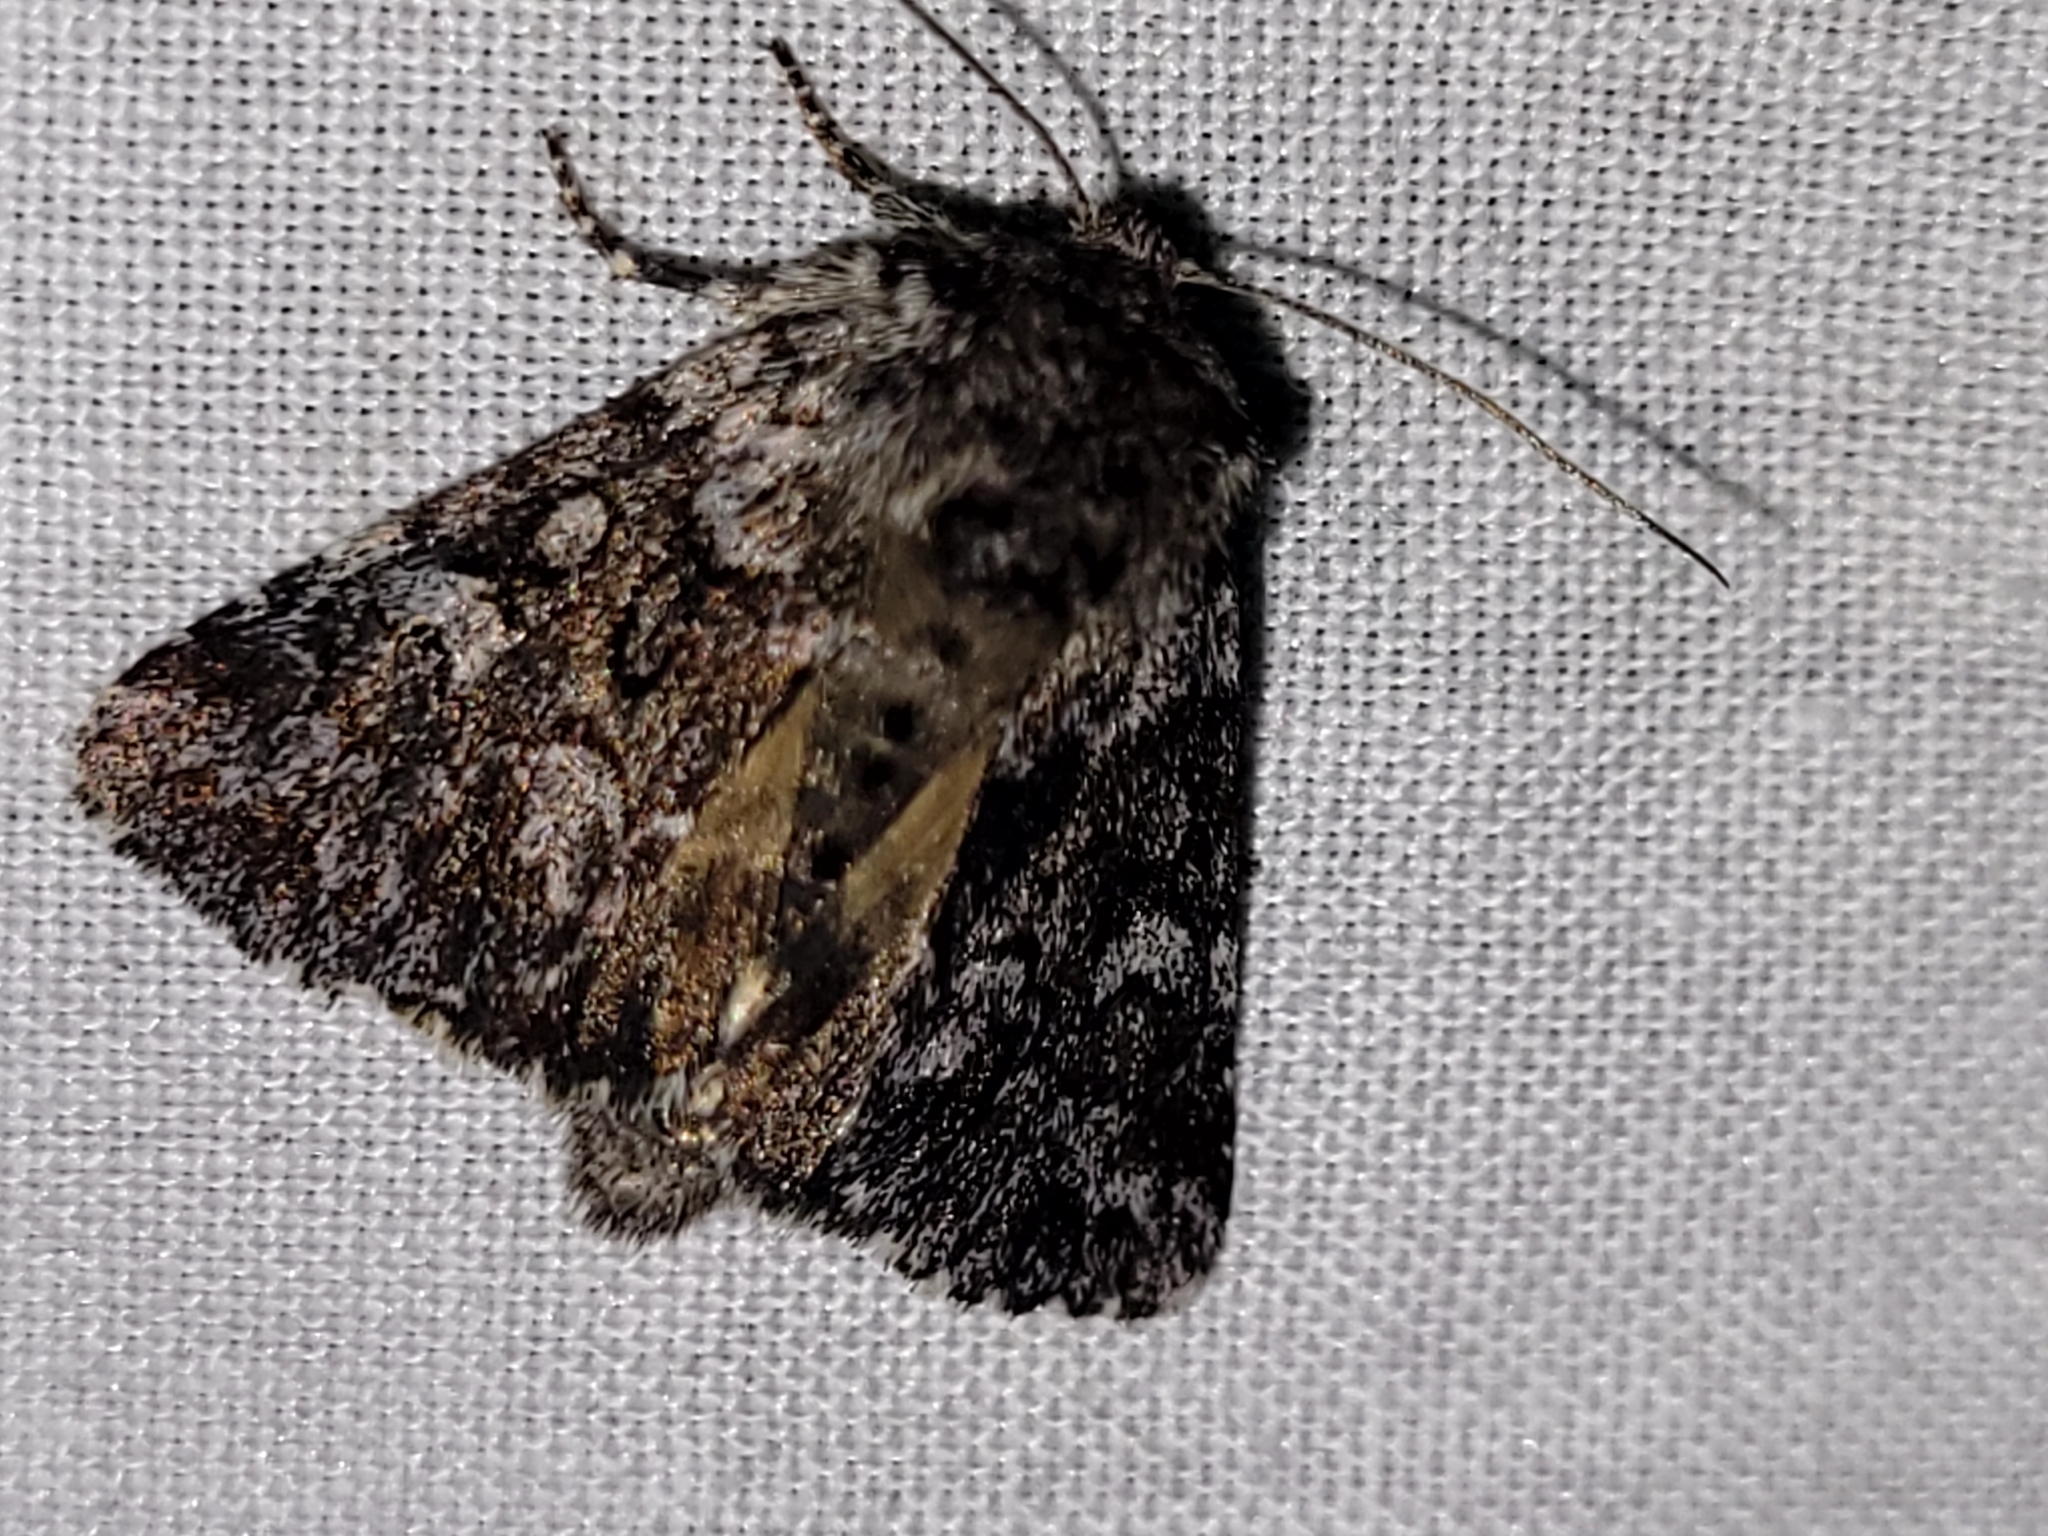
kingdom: Animalia
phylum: Arthropoda
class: Insecta
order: Lepidoptera
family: Noctuidae
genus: Lasionycta
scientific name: Lasionycta secedens
